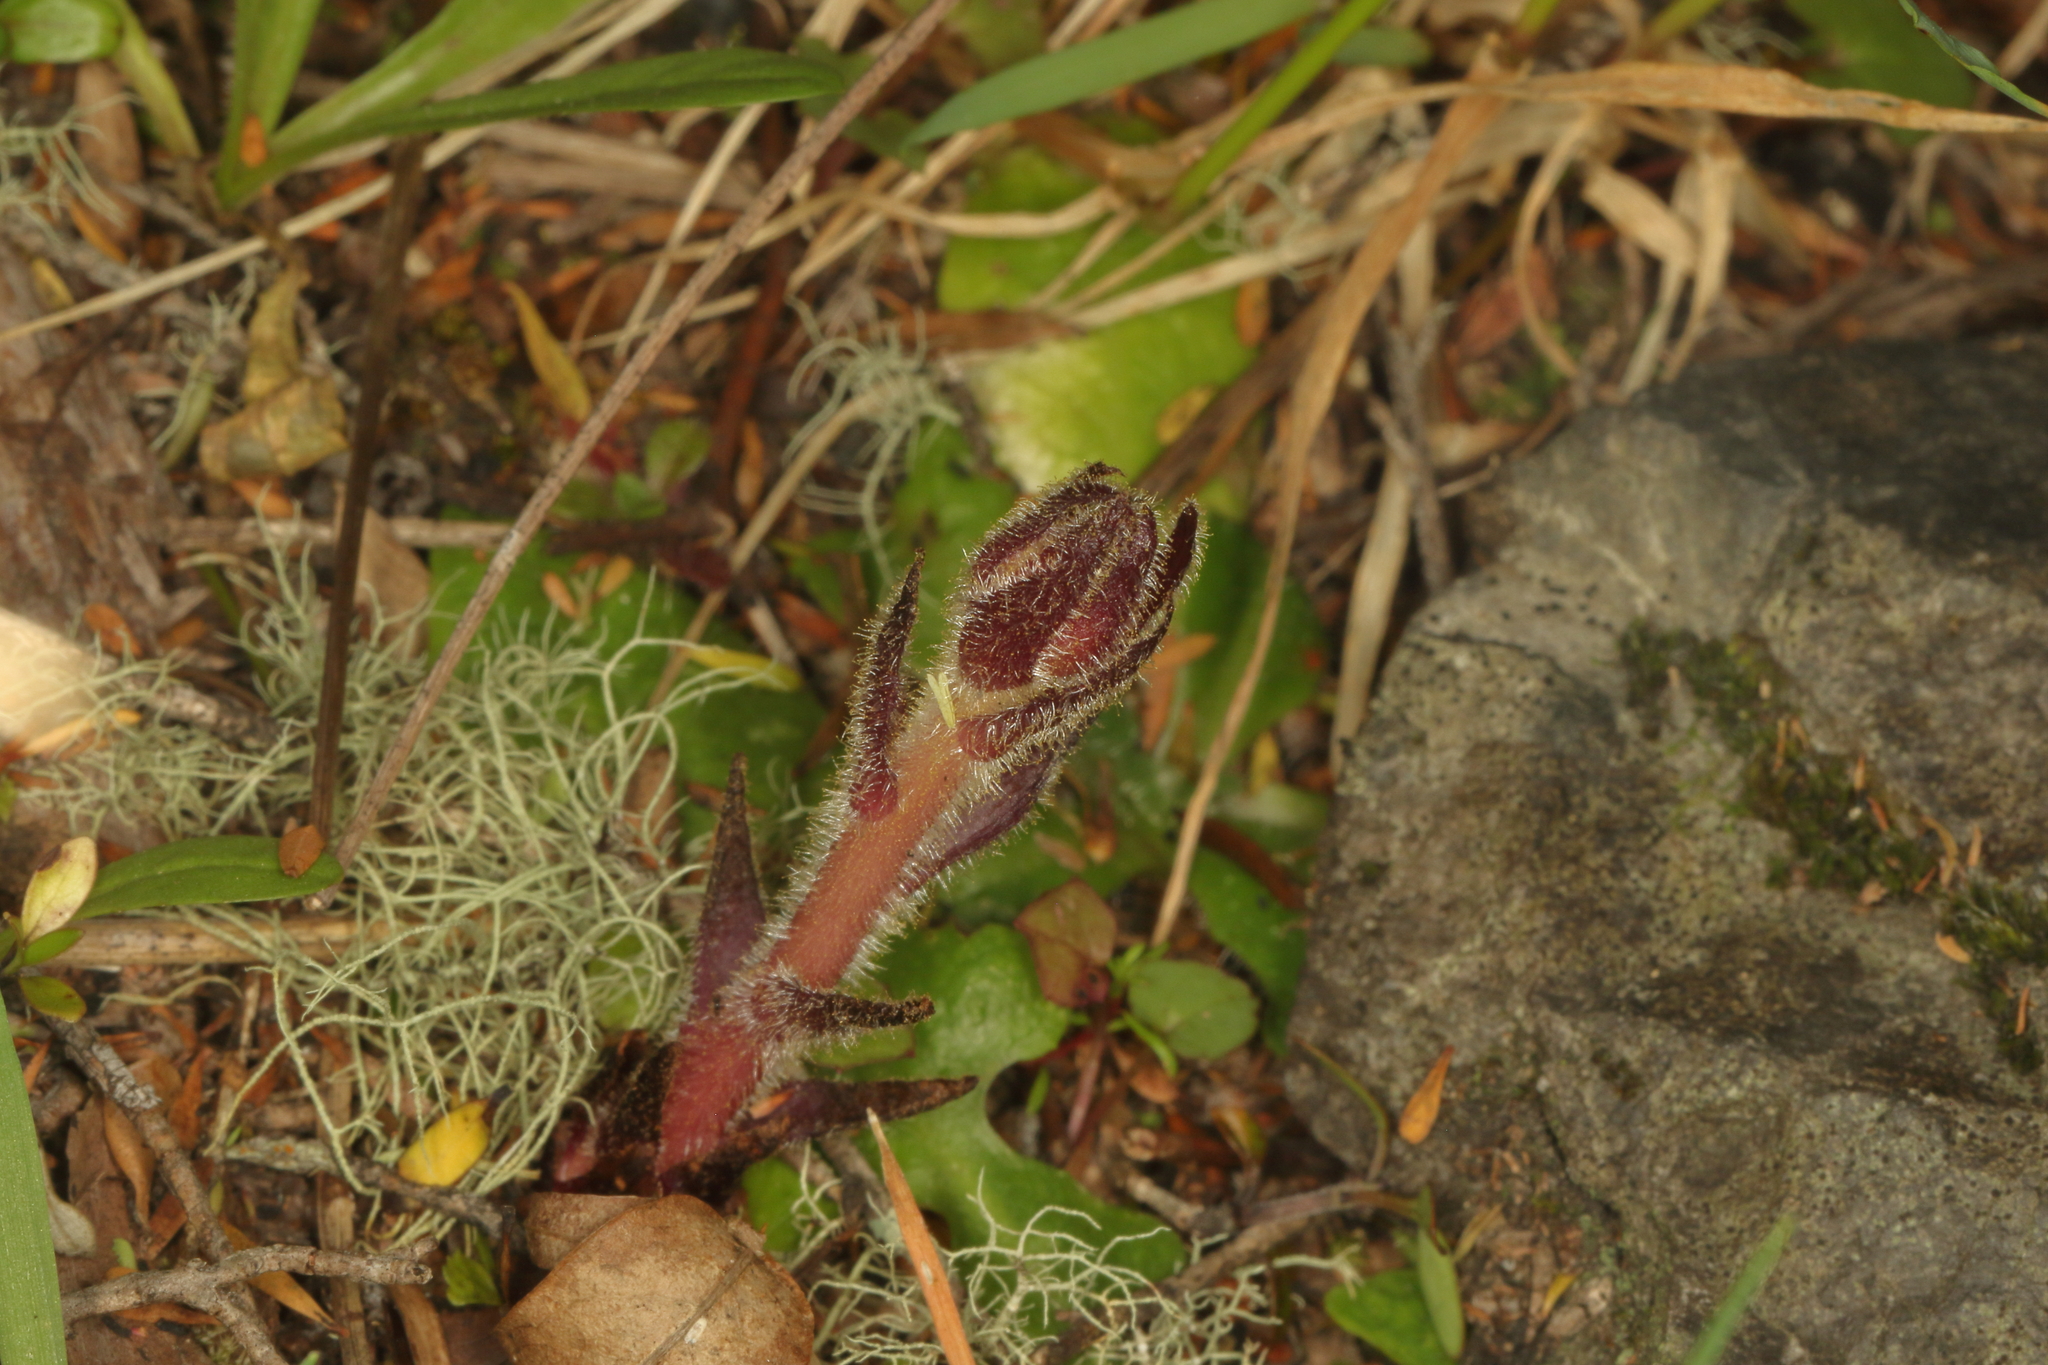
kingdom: Plantae
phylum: Tracheophyta
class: Magnoliopsida
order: Lamiales
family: Orobanchaceae
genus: Orobanche
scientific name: Orobanche minor
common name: Common broomrape
